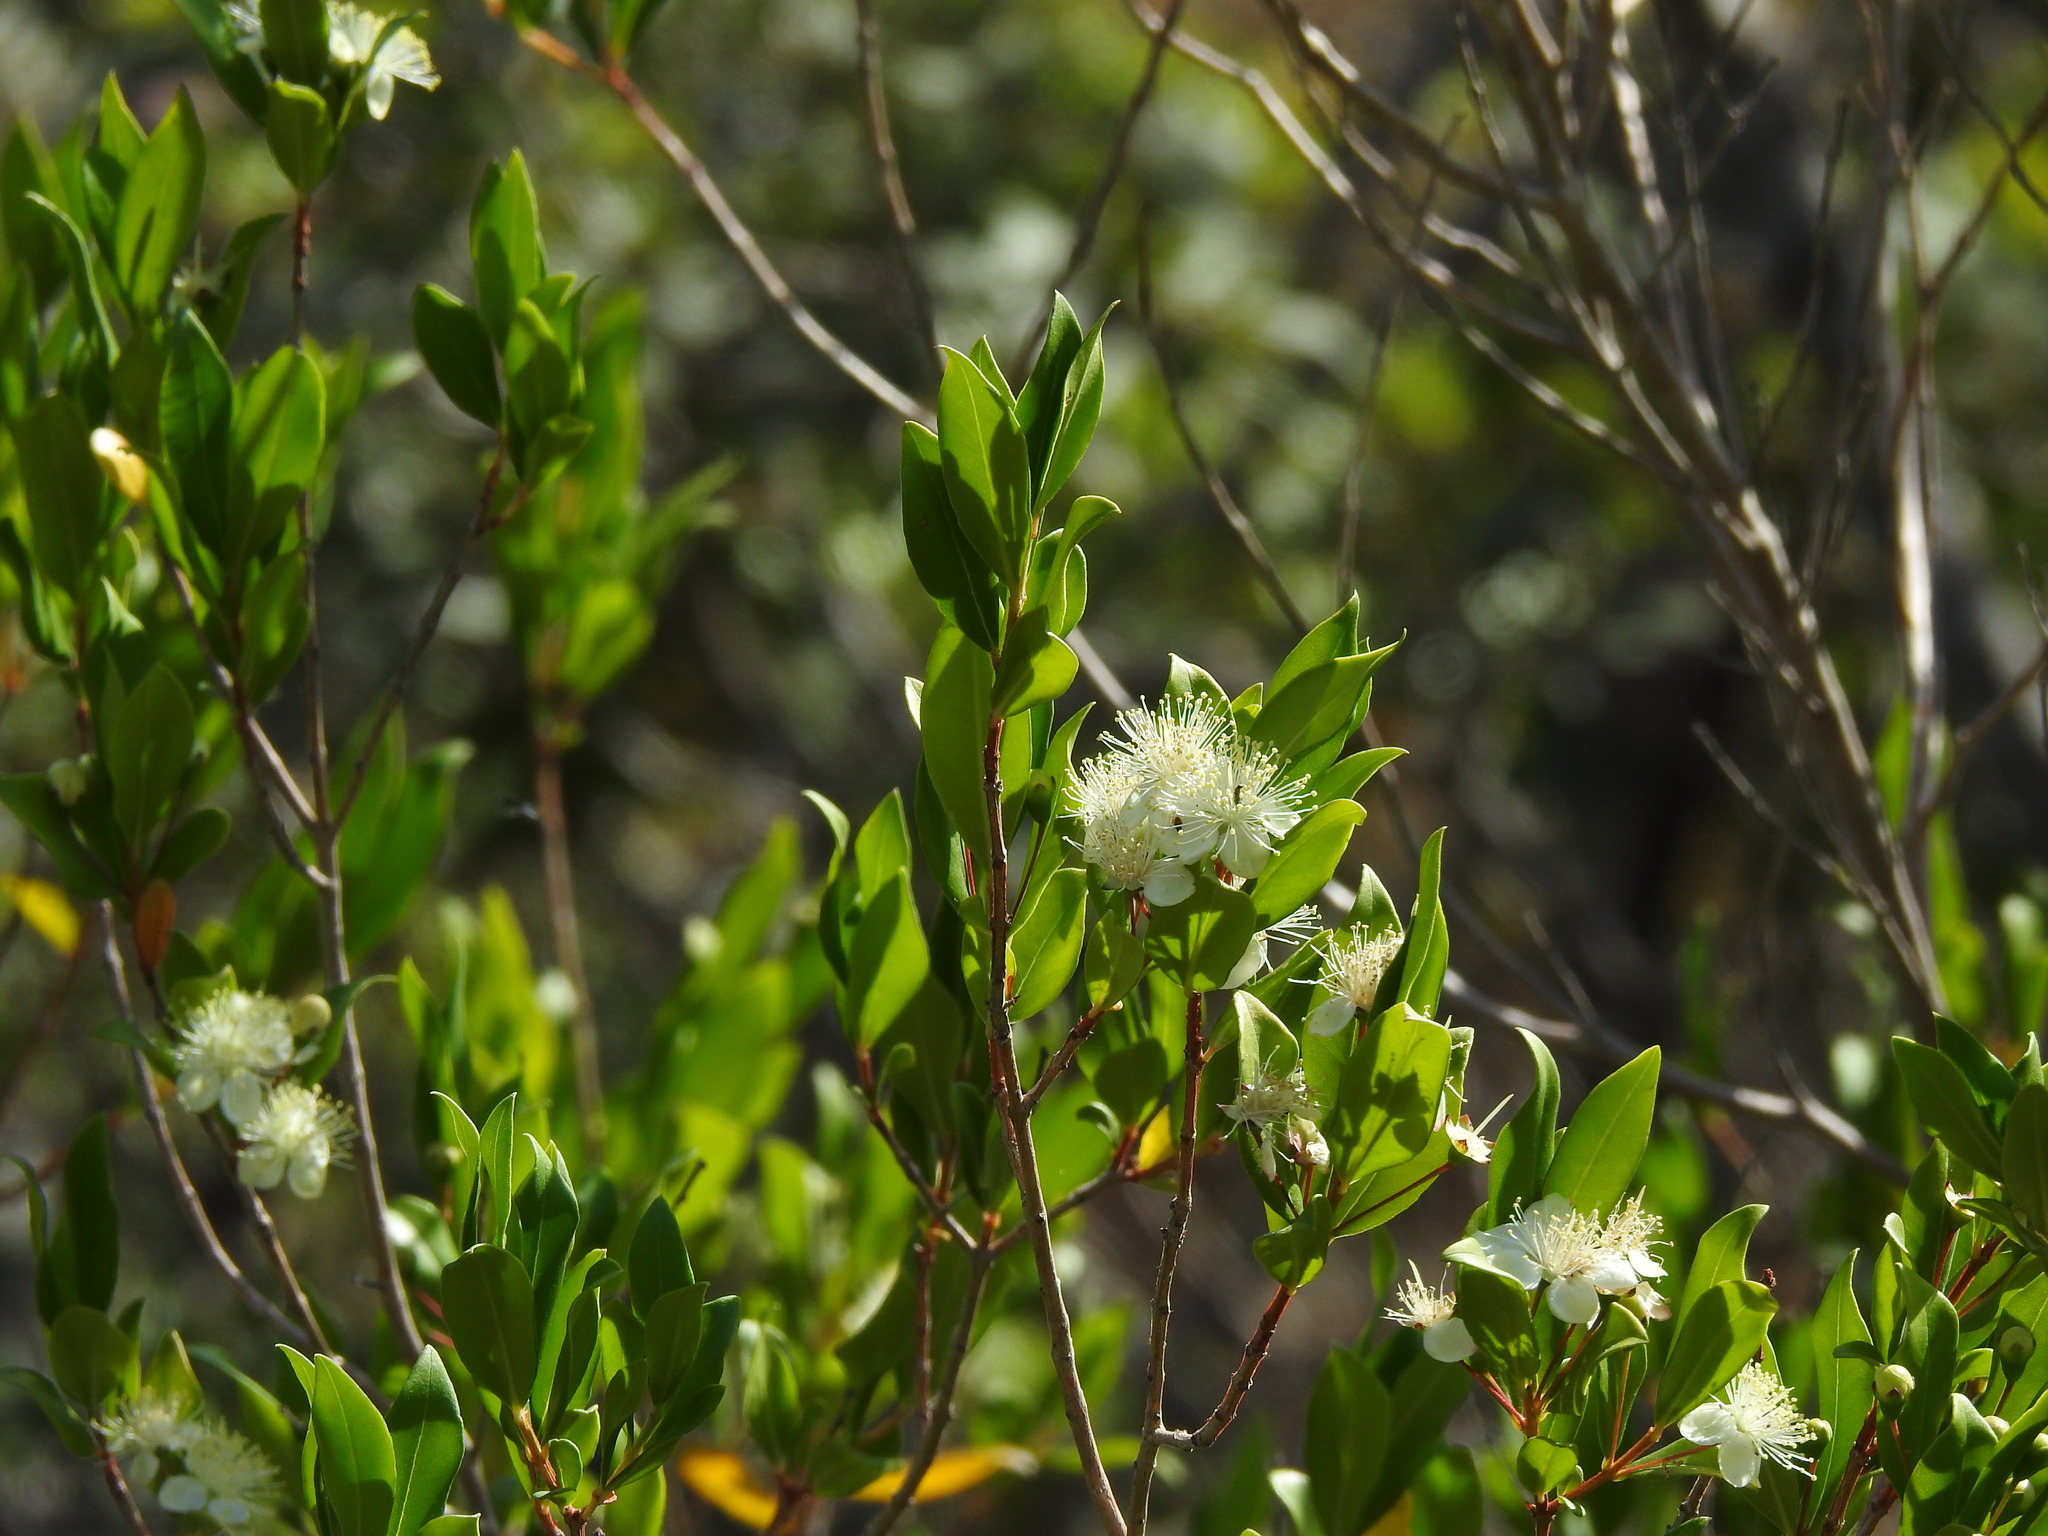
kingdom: Plantae
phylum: Tracheophyta
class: Magnoliopsida
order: Myrtales
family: Myrtaceae
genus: Myrtus
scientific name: Myrtus communis
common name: Myrtle
